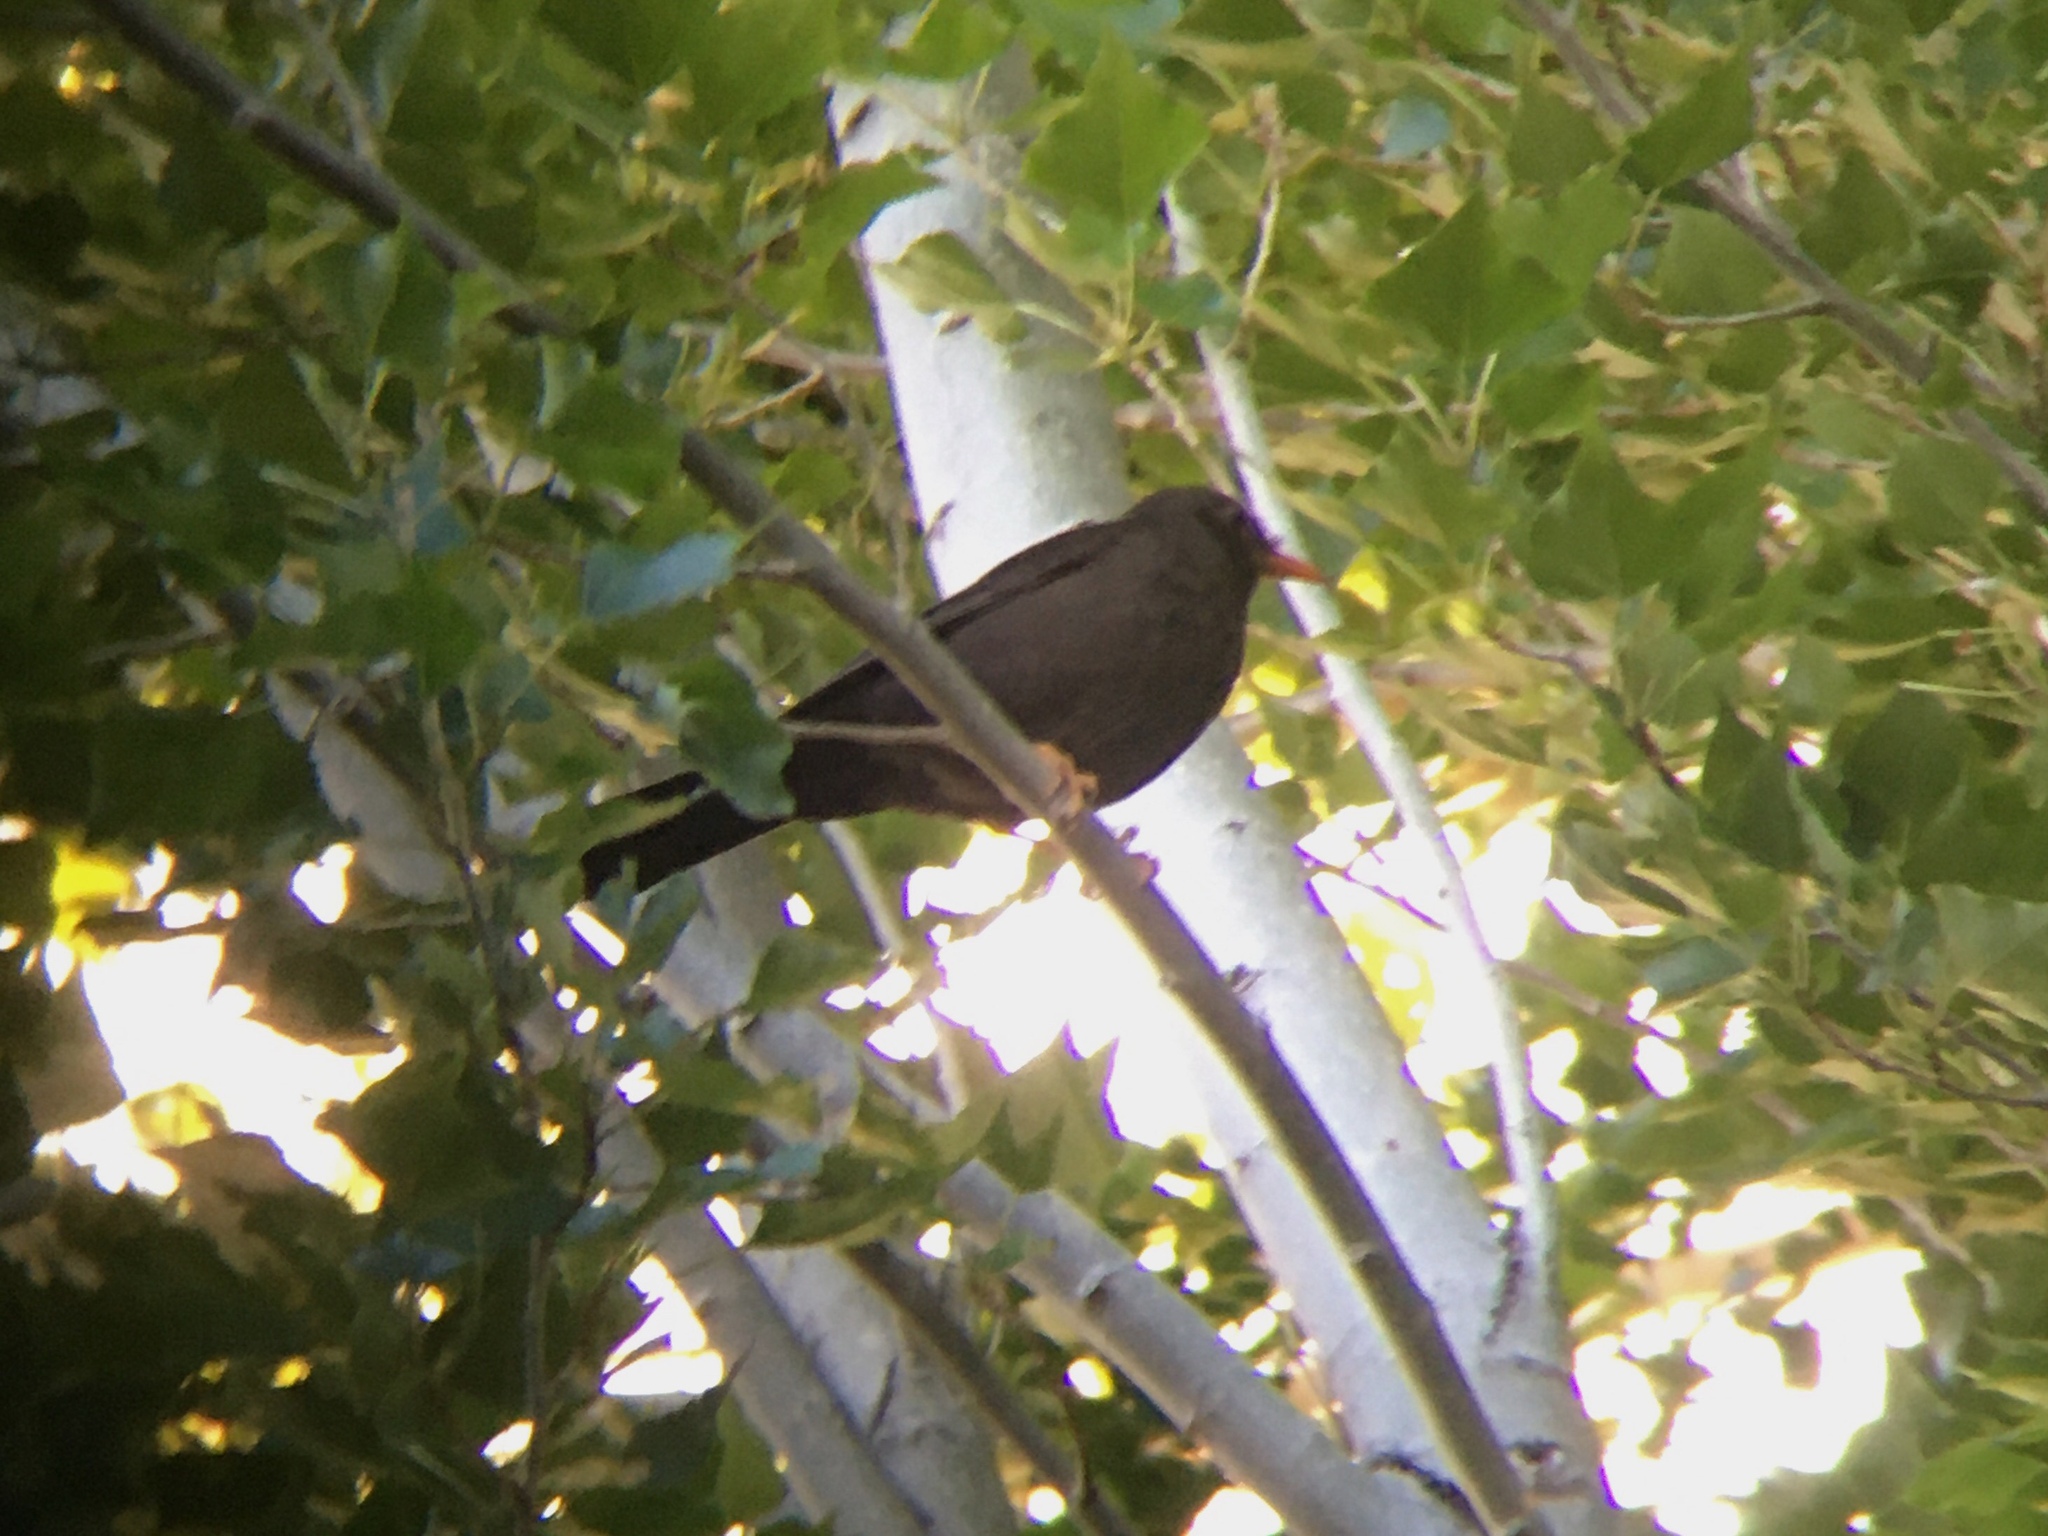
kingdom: Animalia
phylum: Chordata
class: Aves
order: Passeriformes
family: Turdidae
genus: Turdus
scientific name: Turdus chiguanco
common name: Chiguanco thrush
